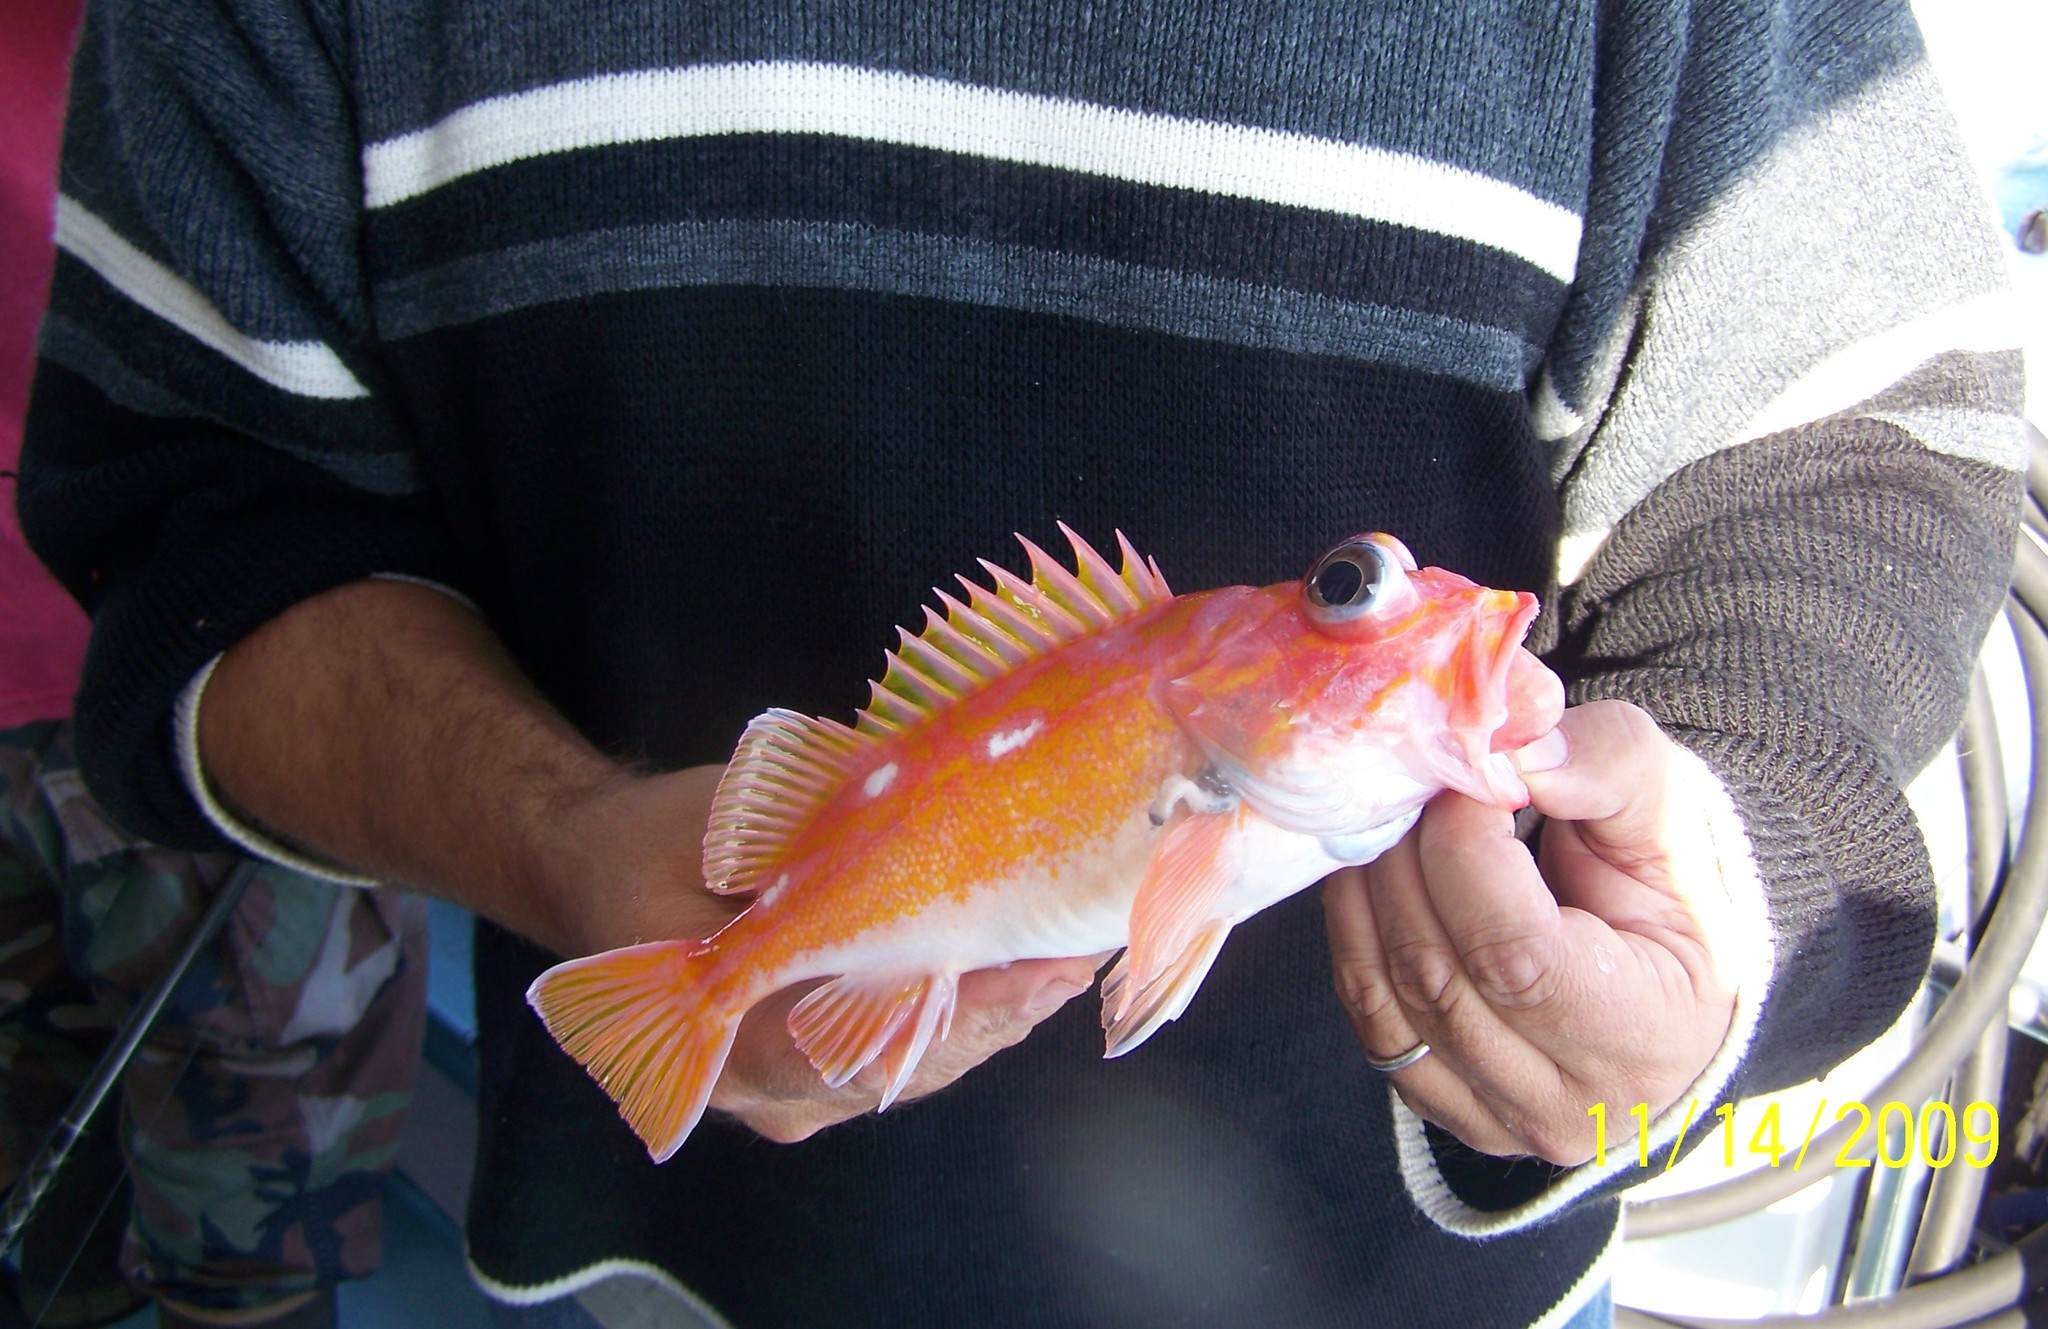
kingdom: Animalia
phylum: Chordata
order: Scorpaeniformes
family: Sebastidae
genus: Sebastes
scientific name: Sebastes rosaceus
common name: Rosy rockfish
